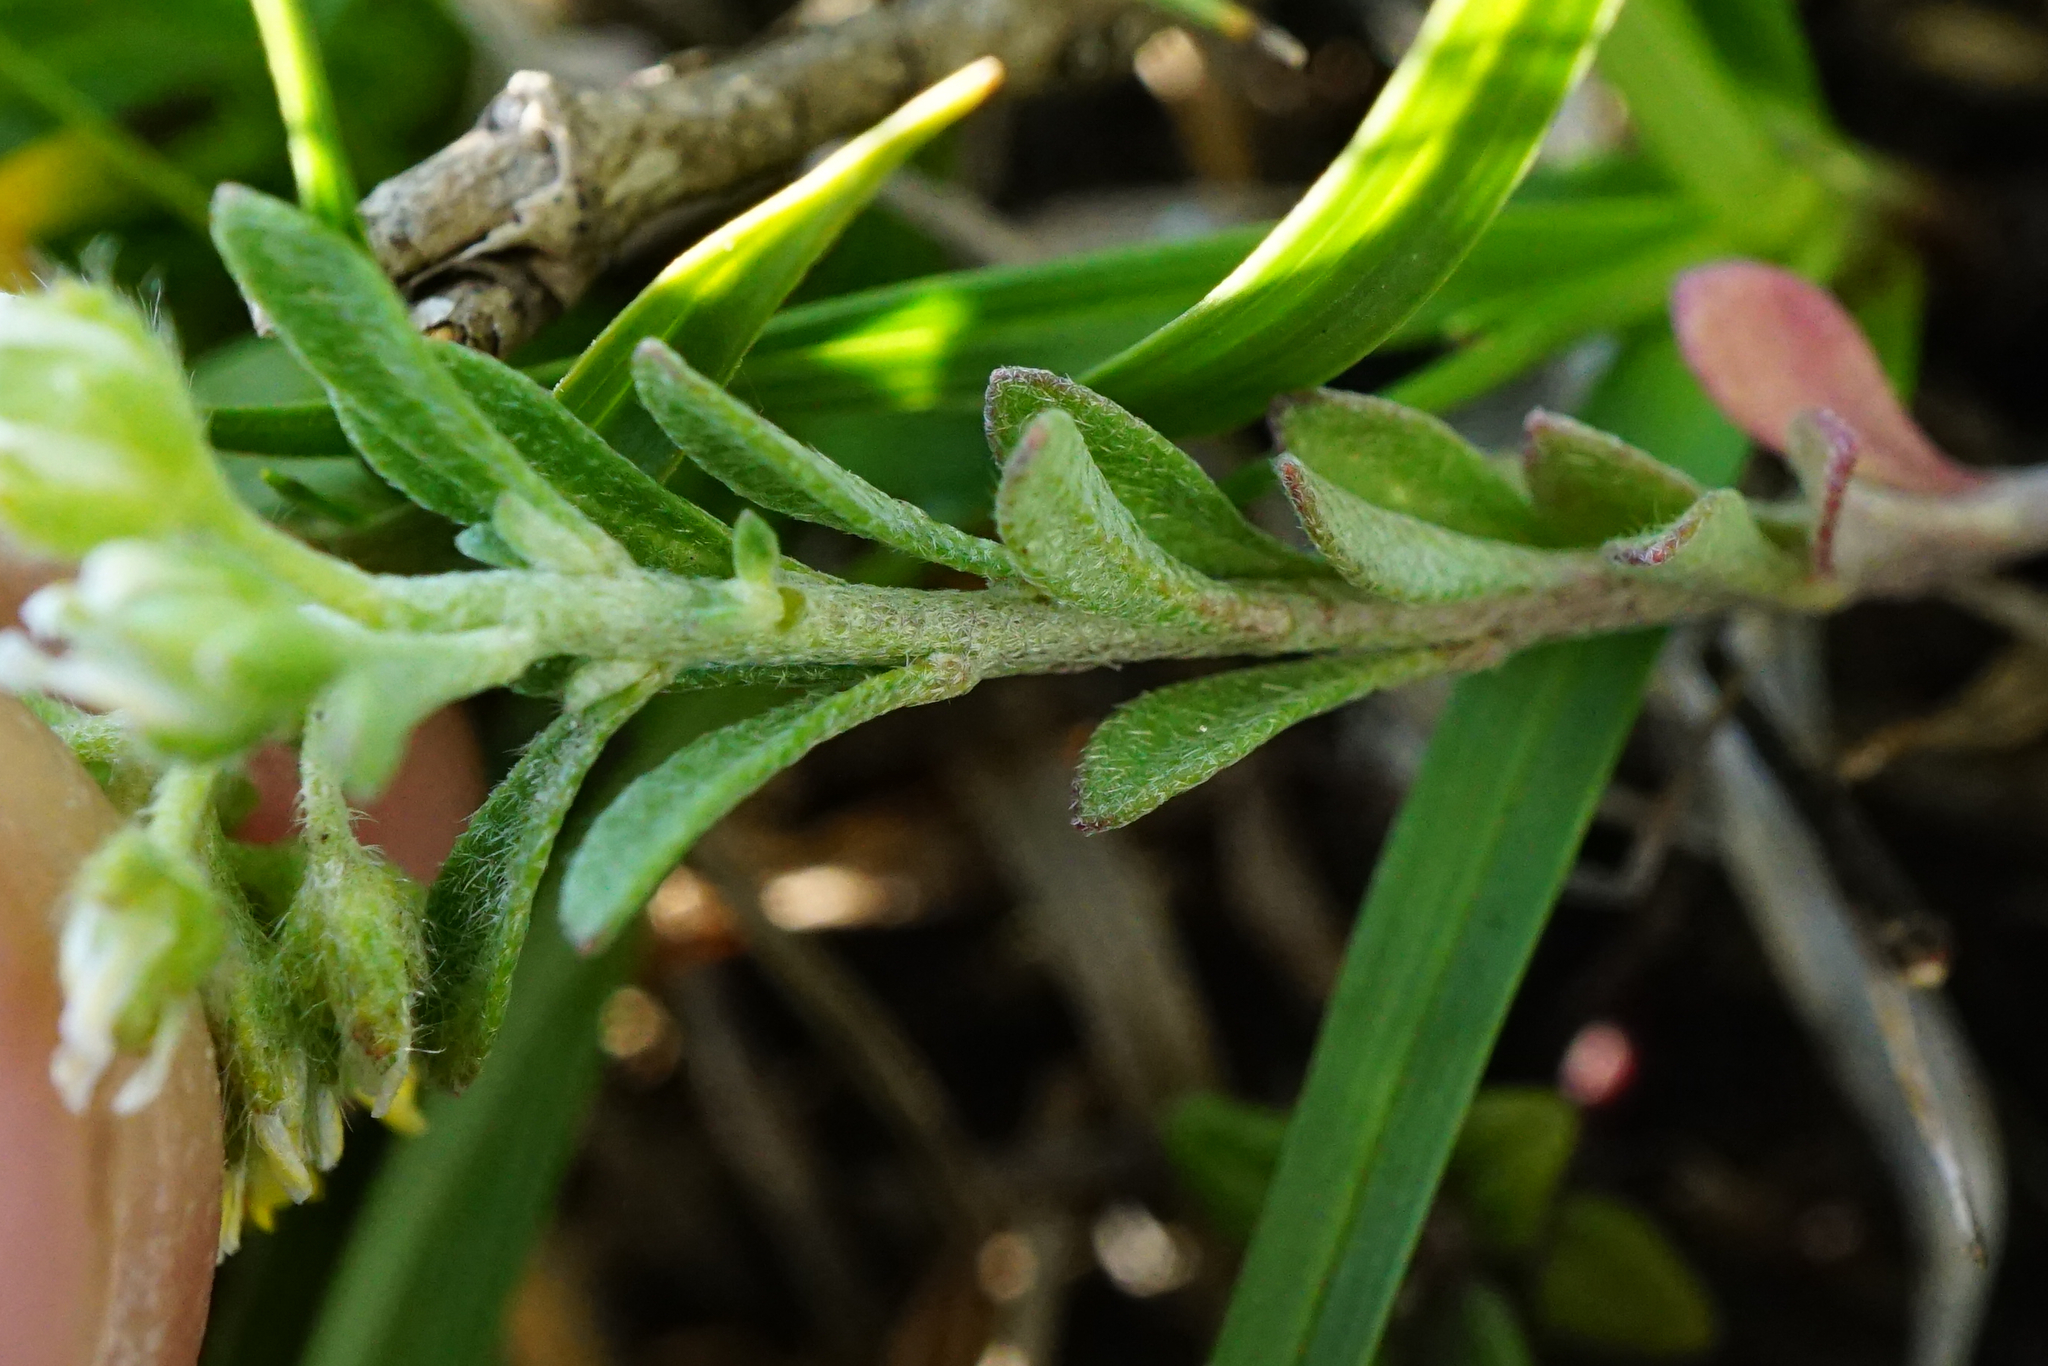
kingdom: Plantae
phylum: Tracheophyta
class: Magnoliopsida
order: Brassicales
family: Brassicaceae
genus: Alyssum
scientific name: Alyssum alyssoides
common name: Small alison
